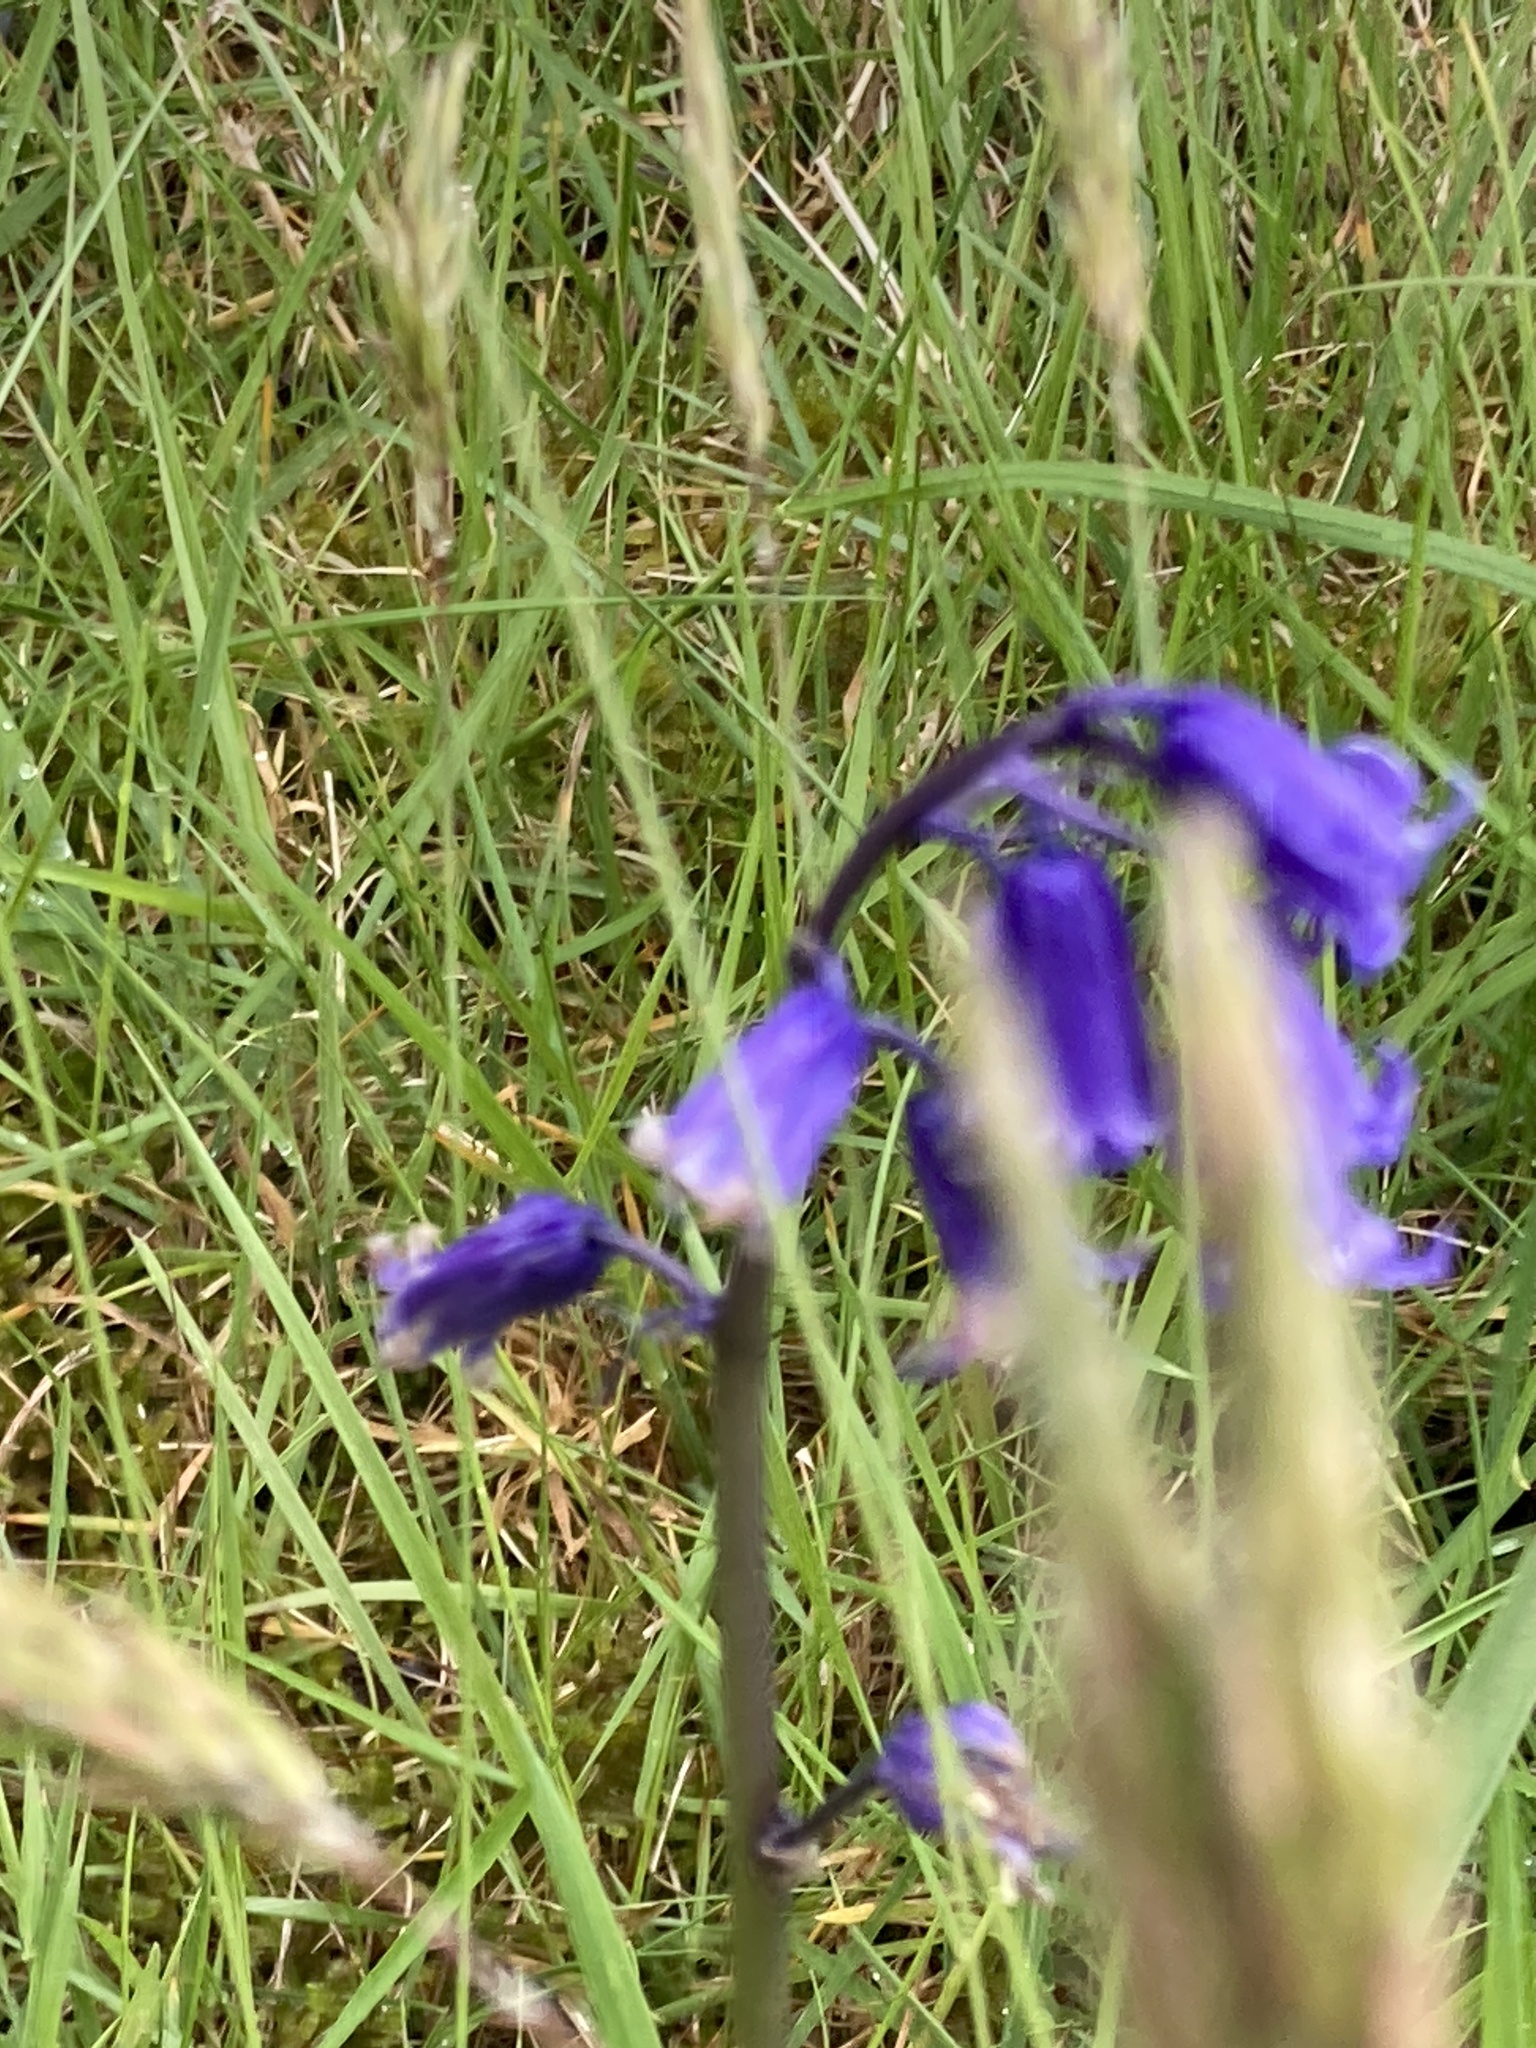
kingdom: Plantae
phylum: Tracheophyta
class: Liliopsida
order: Asparagales
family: Asparagaceae
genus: Hyacinthoides
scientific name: Hyacinthoides non-scripta
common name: Bluebell
